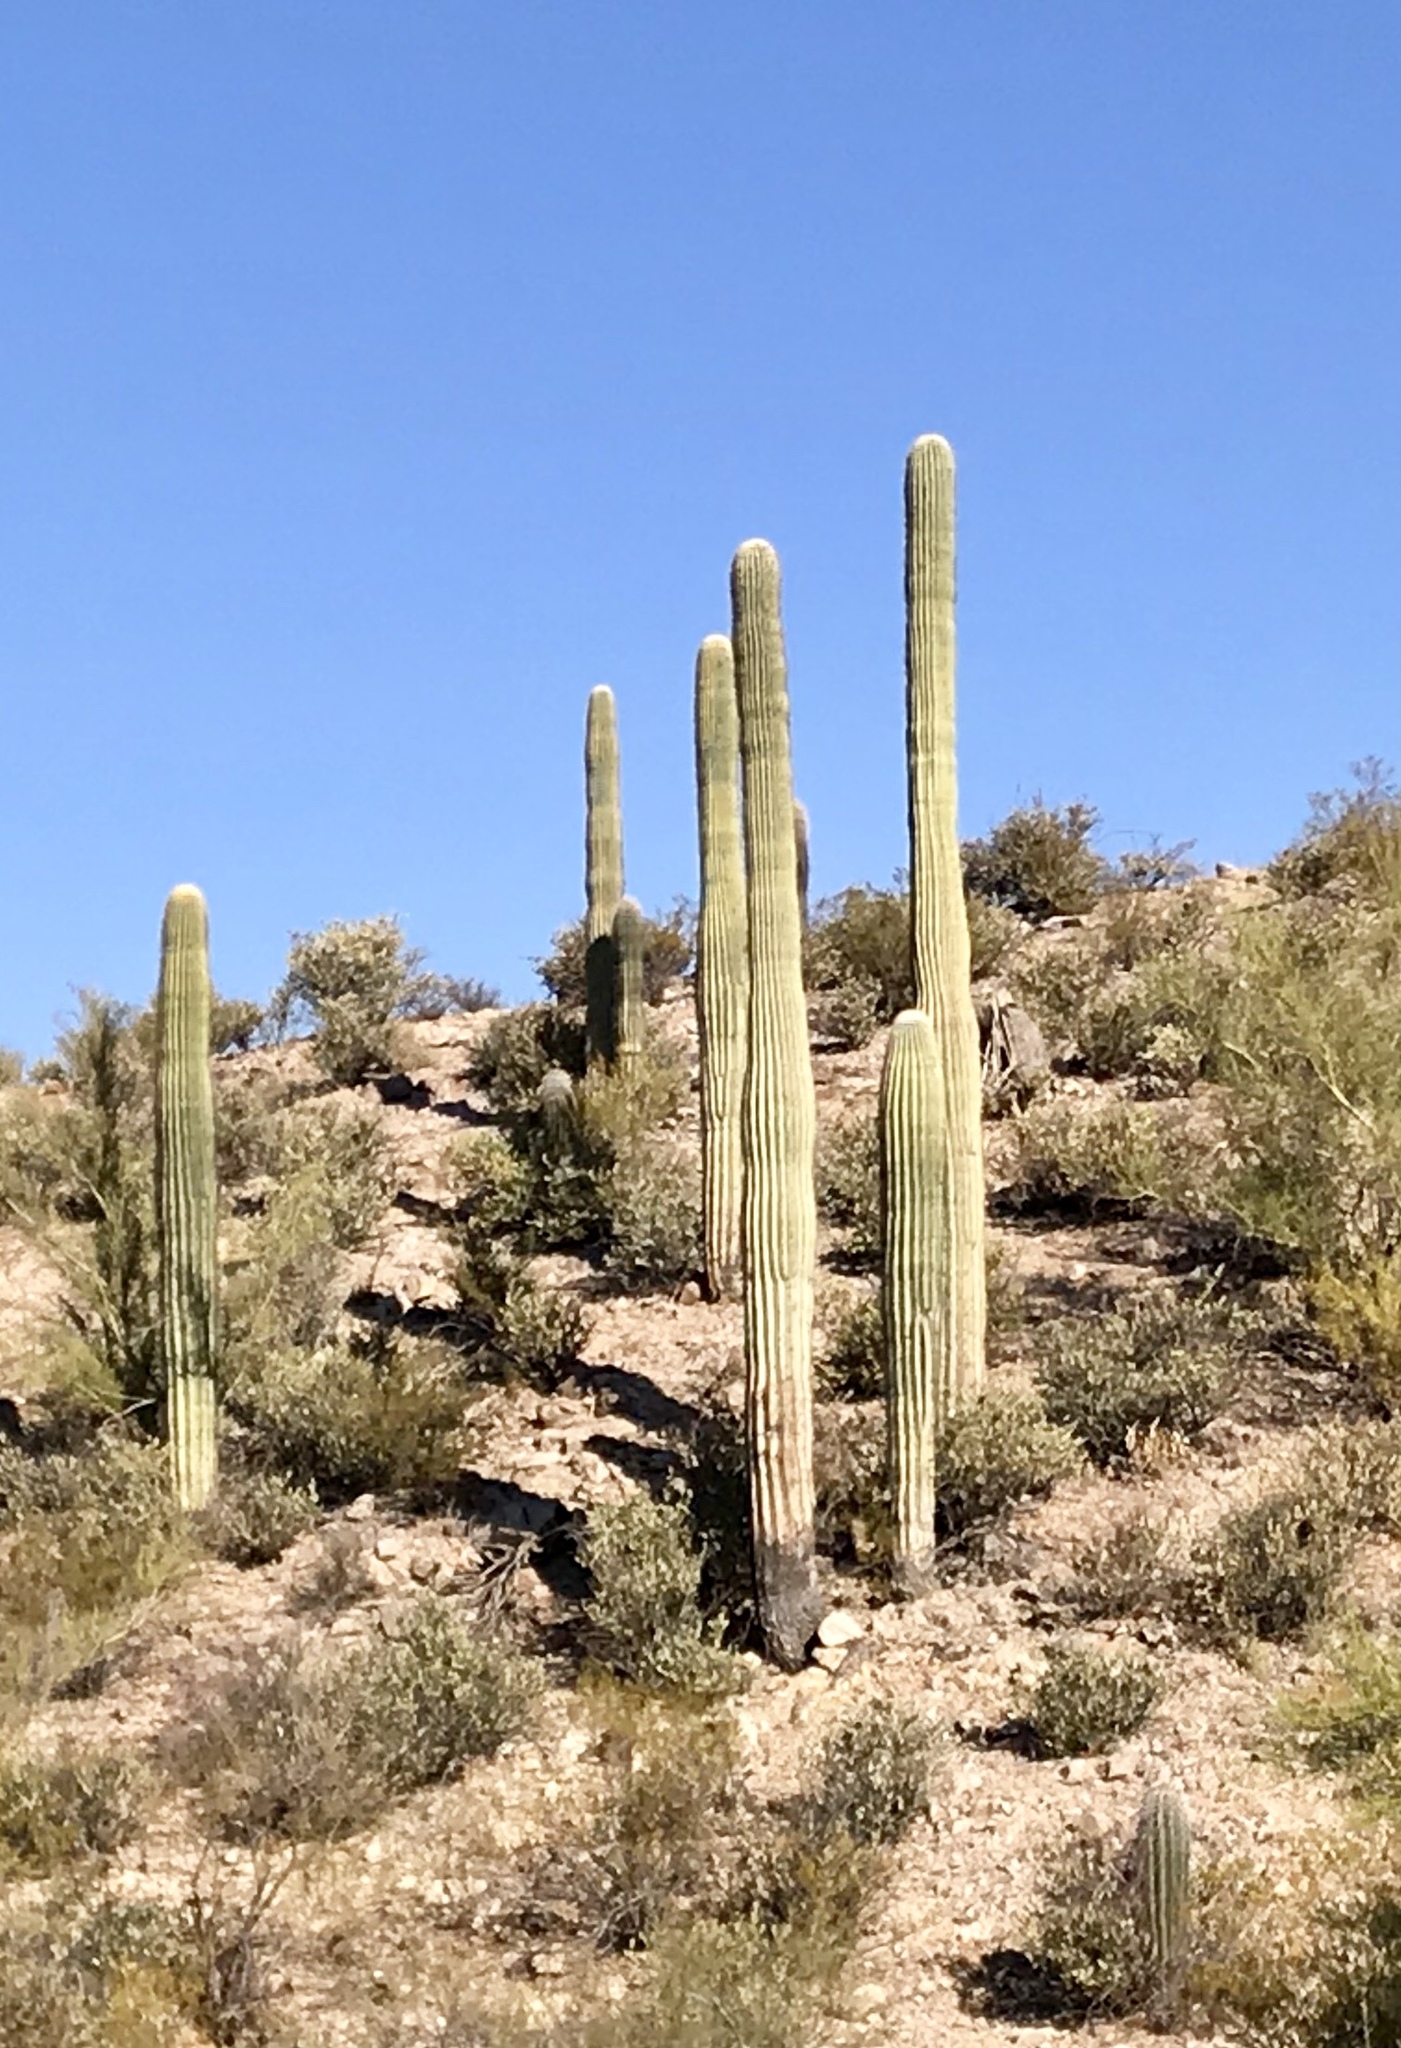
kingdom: Plantae
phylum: Tracheophyta
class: Magnoliopsida
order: Caryophyllales
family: Cactaceae
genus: Carnegiea
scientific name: Carnegiea gigantea
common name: Saguaro
